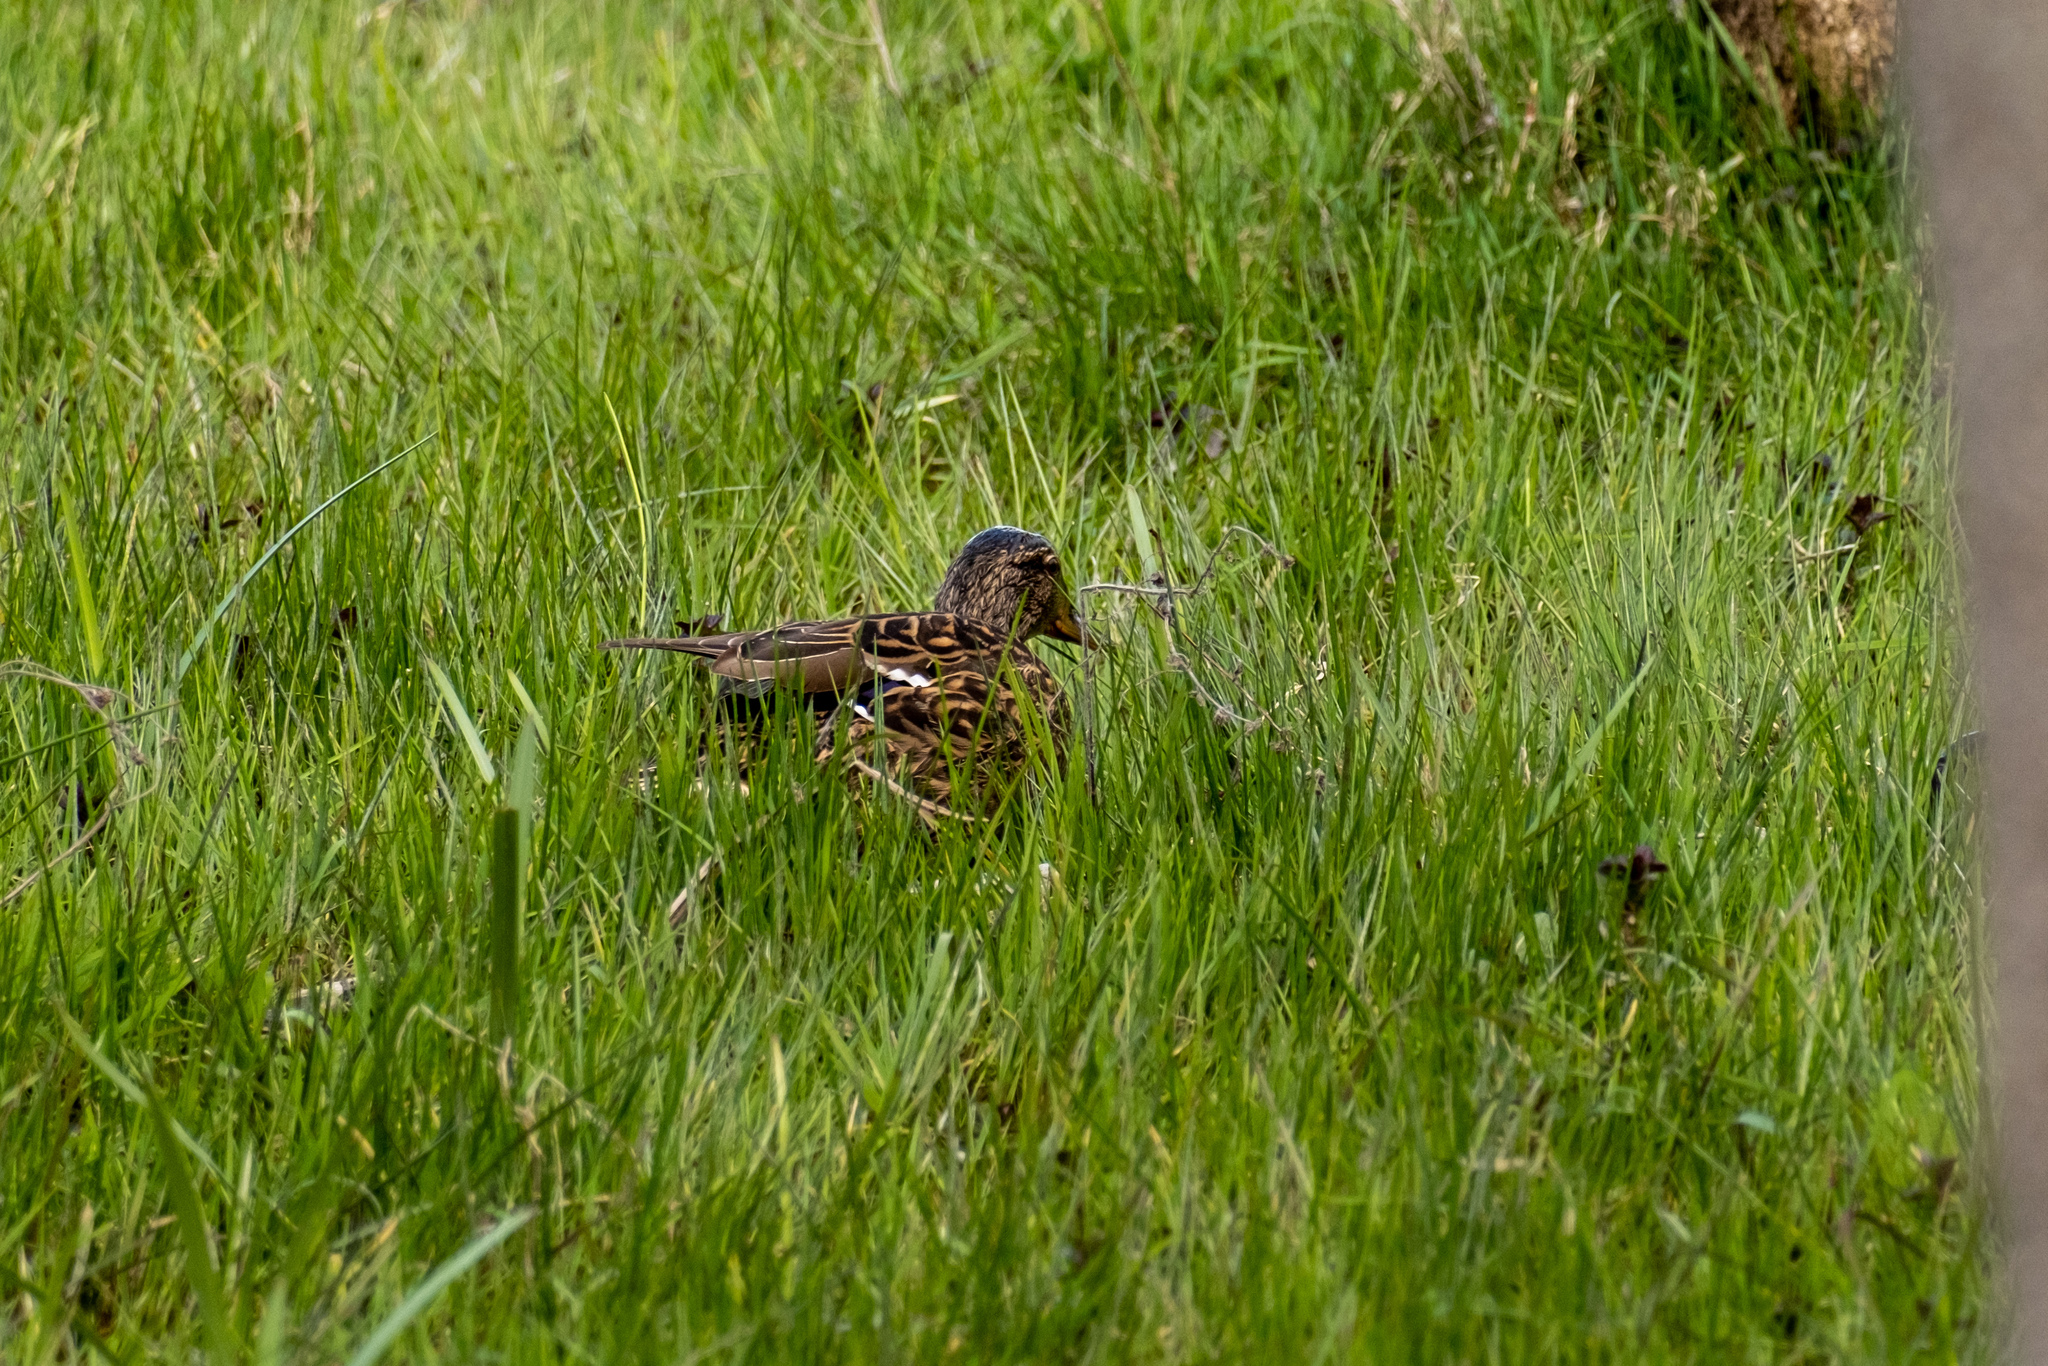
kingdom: Animalia
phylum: Chordata
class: Aves
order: Anseriformes
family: Anatidae
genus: Anas
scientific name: Anas platyrhynchos
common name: Mallard
